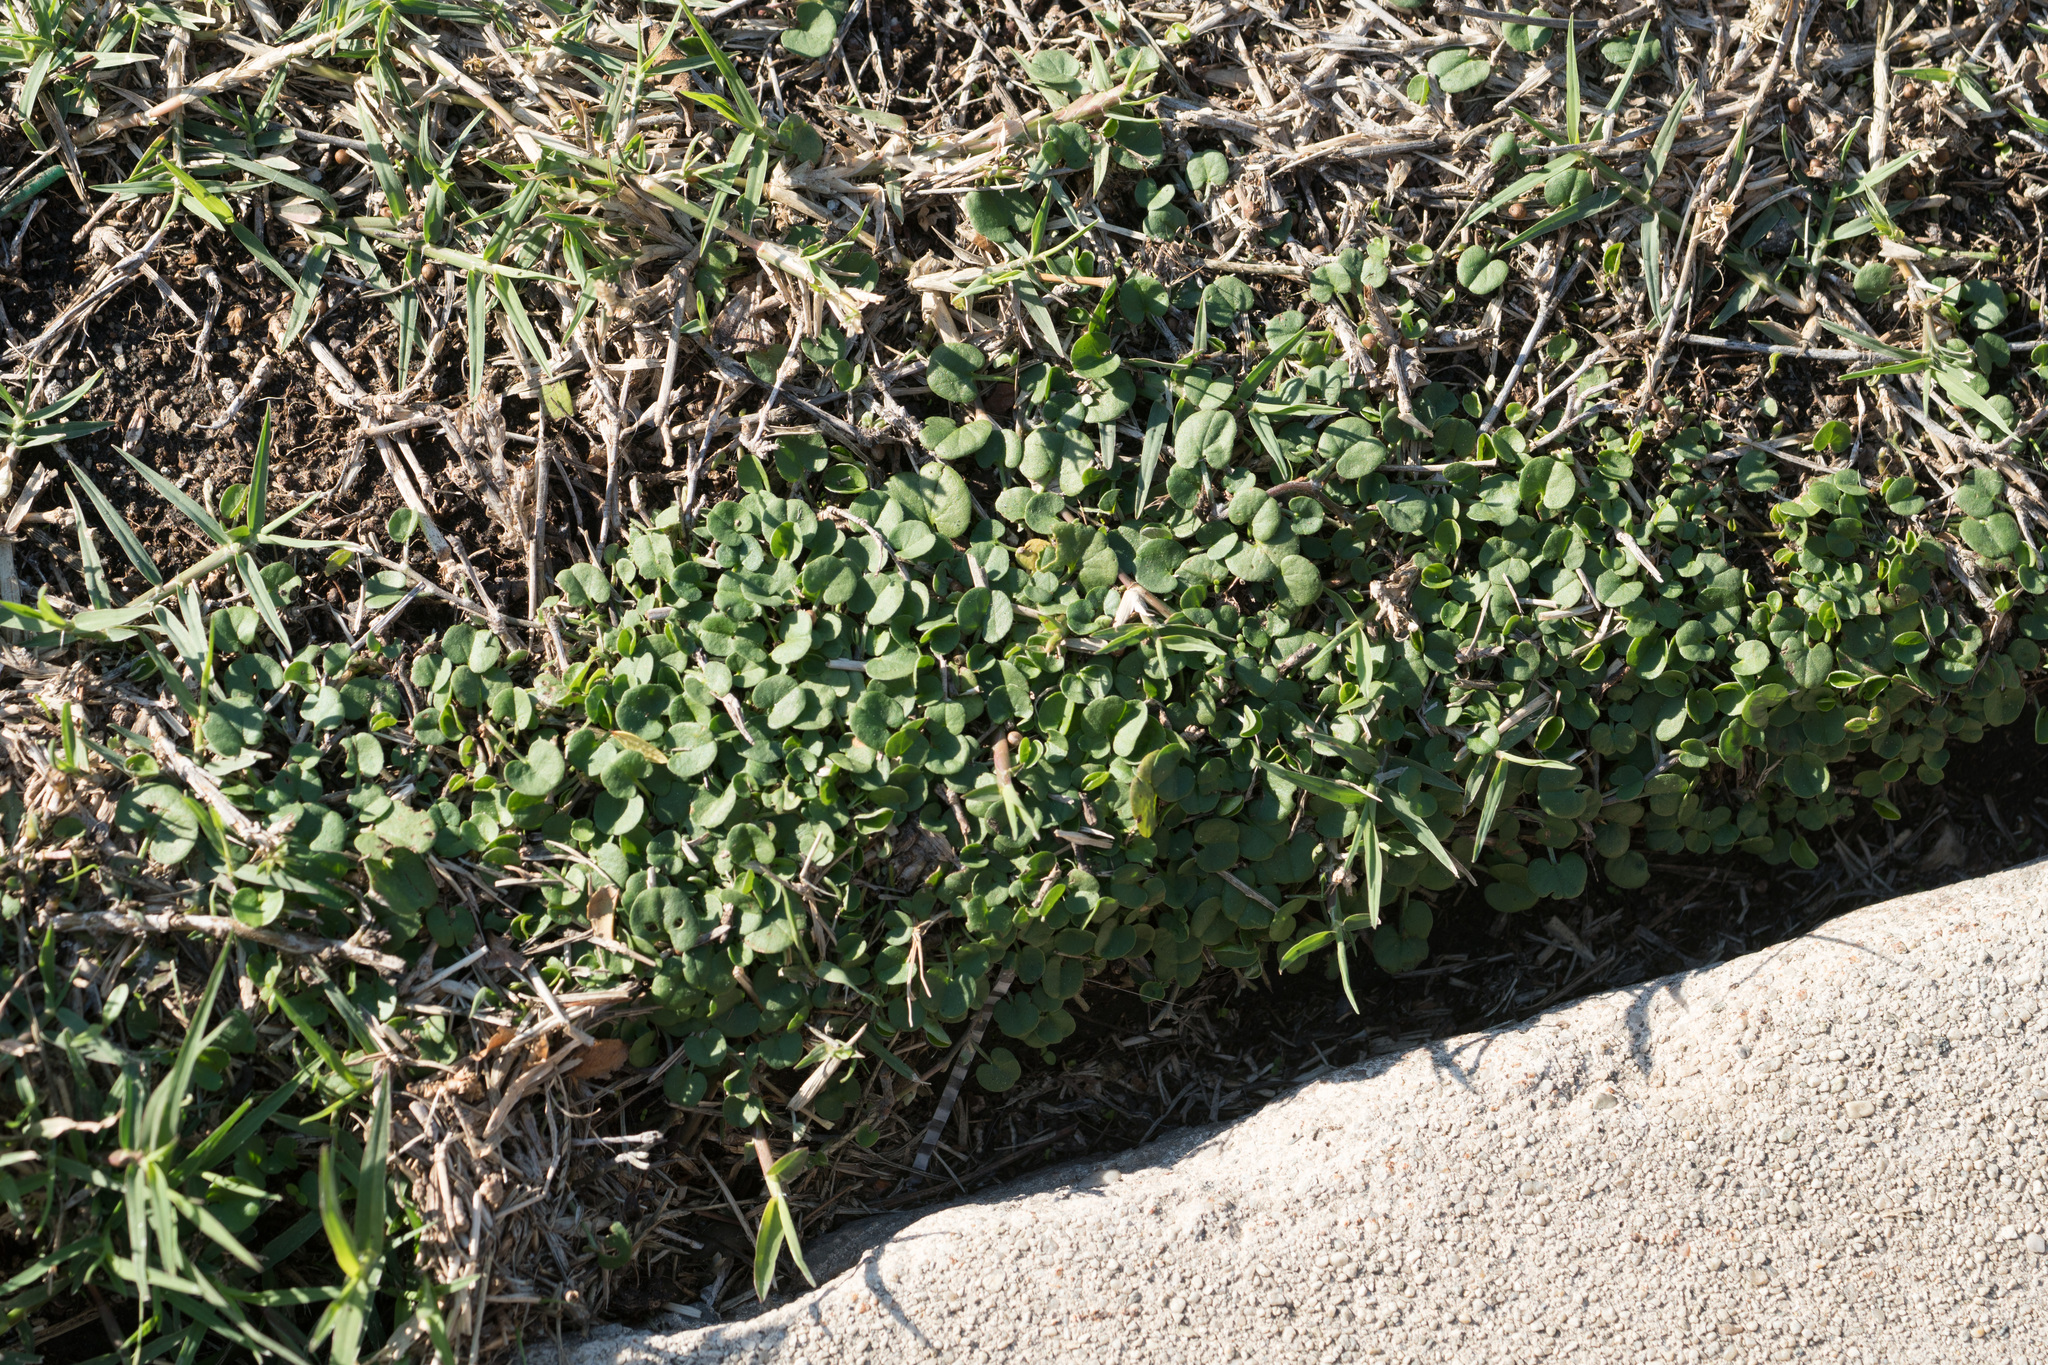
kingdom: Plantae
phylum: Tracheophyta
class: Magnoliopsida
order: Solanales
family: Convolvulaceae
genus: Dichondra
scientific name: Dichondra micrantha
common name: Kidneyweed
